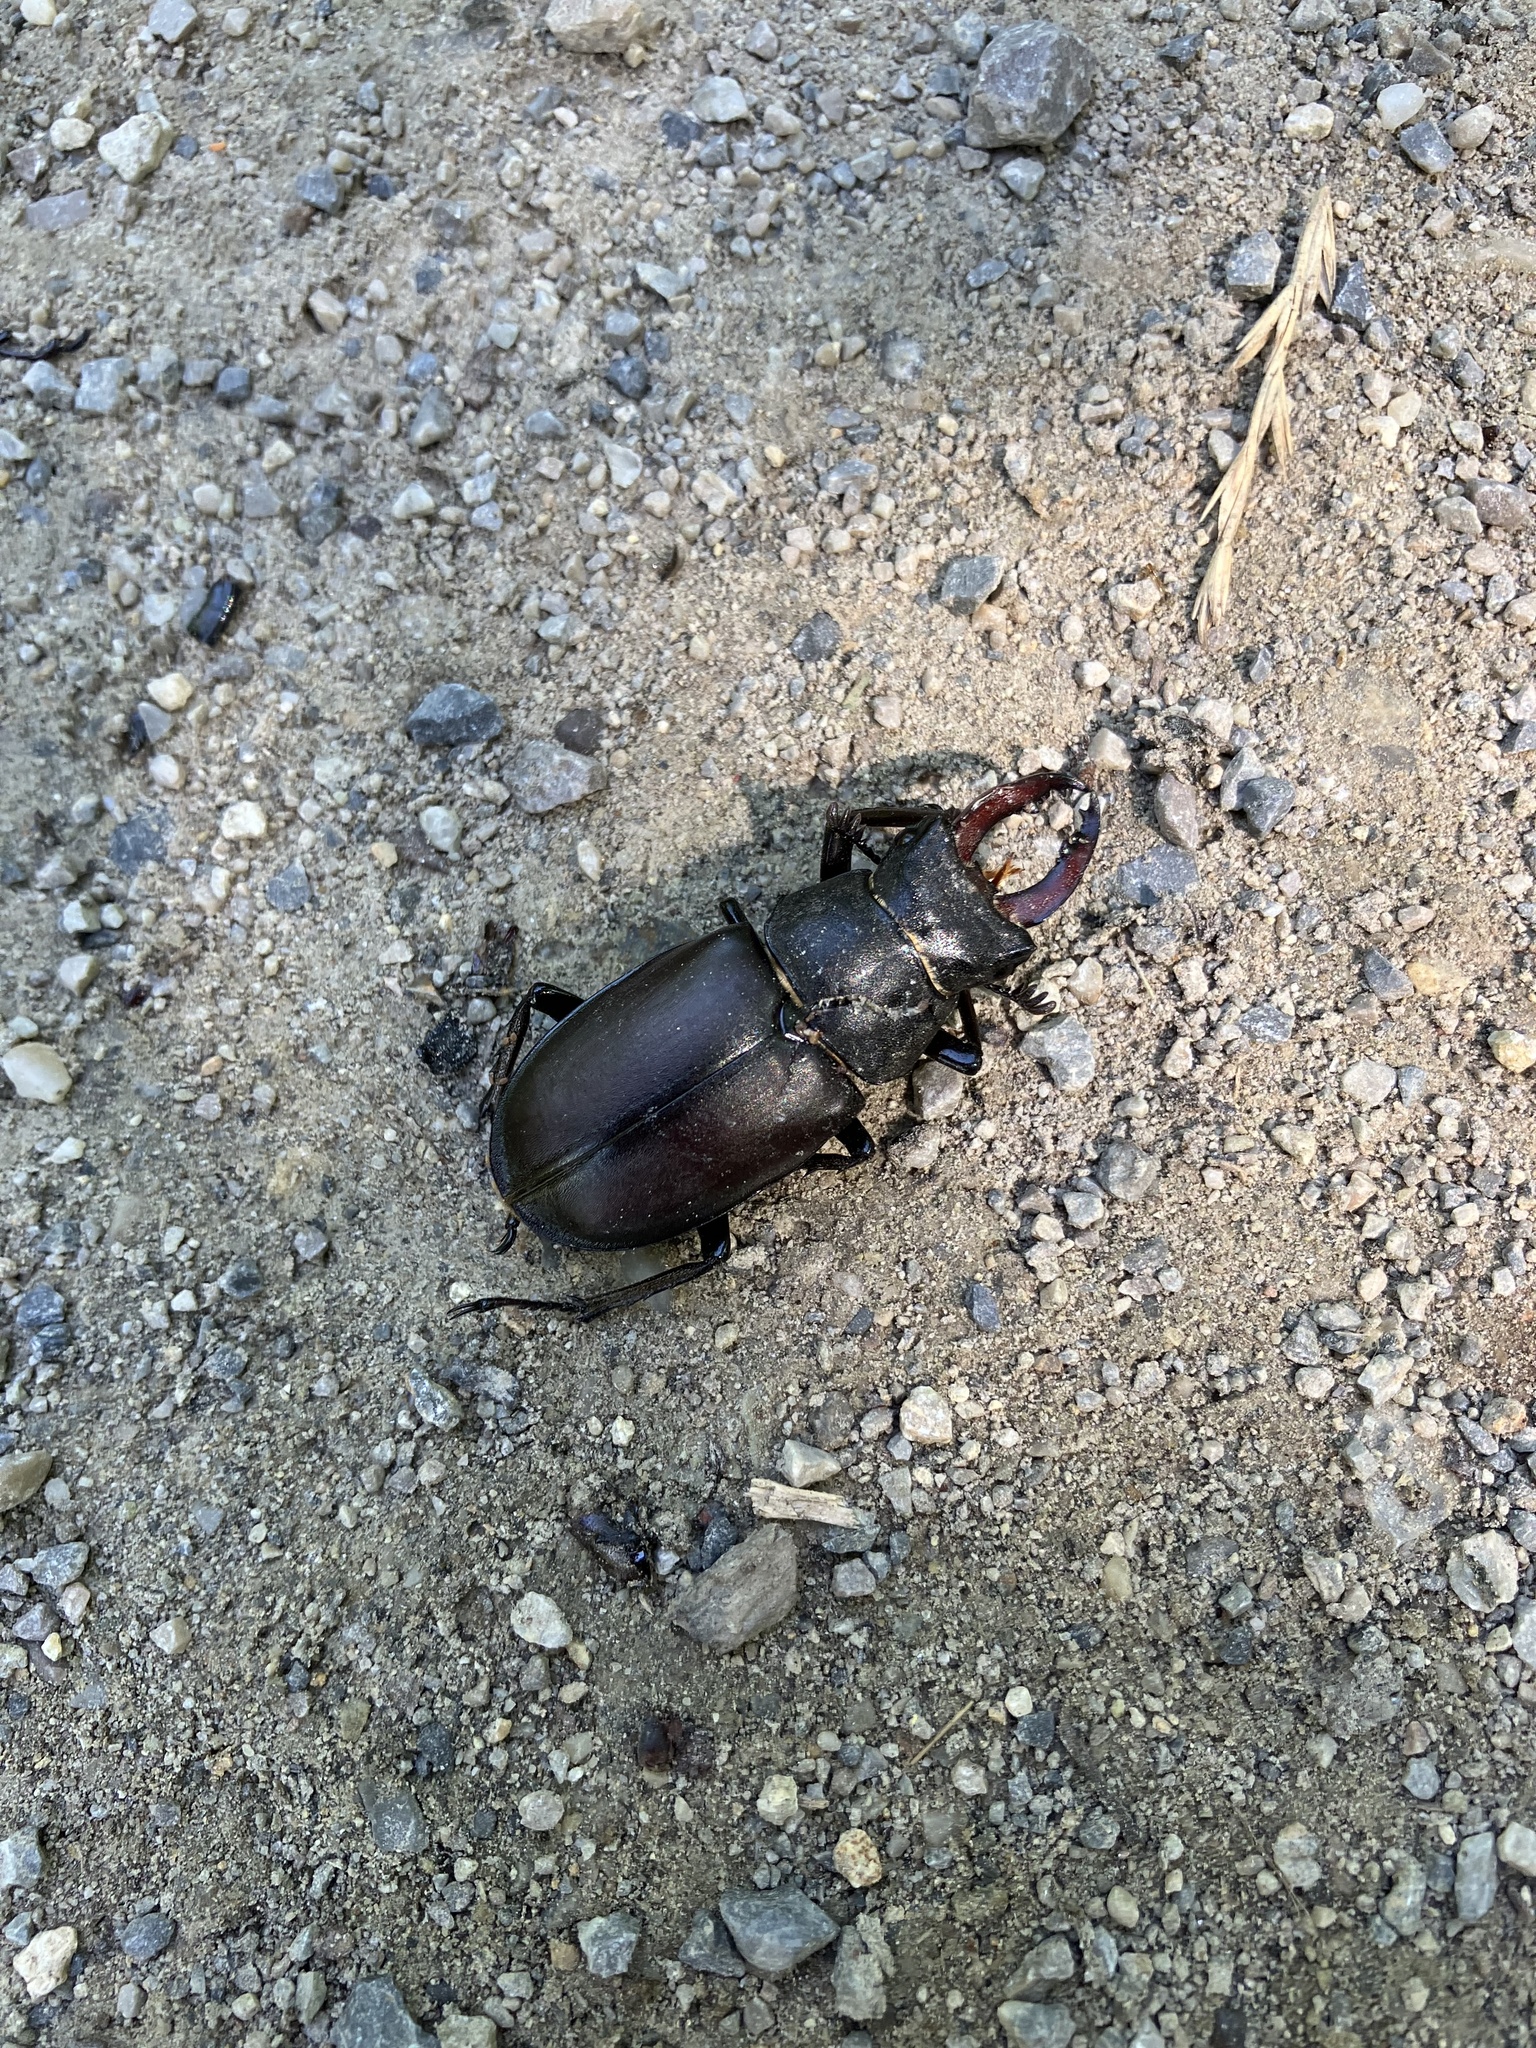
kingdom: Animalia
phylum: Arthropoda
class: Insecta
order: Coleoptera
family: Lucanidae
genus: Lucanus
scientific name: Lucanus cervus
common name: Stag beetle
